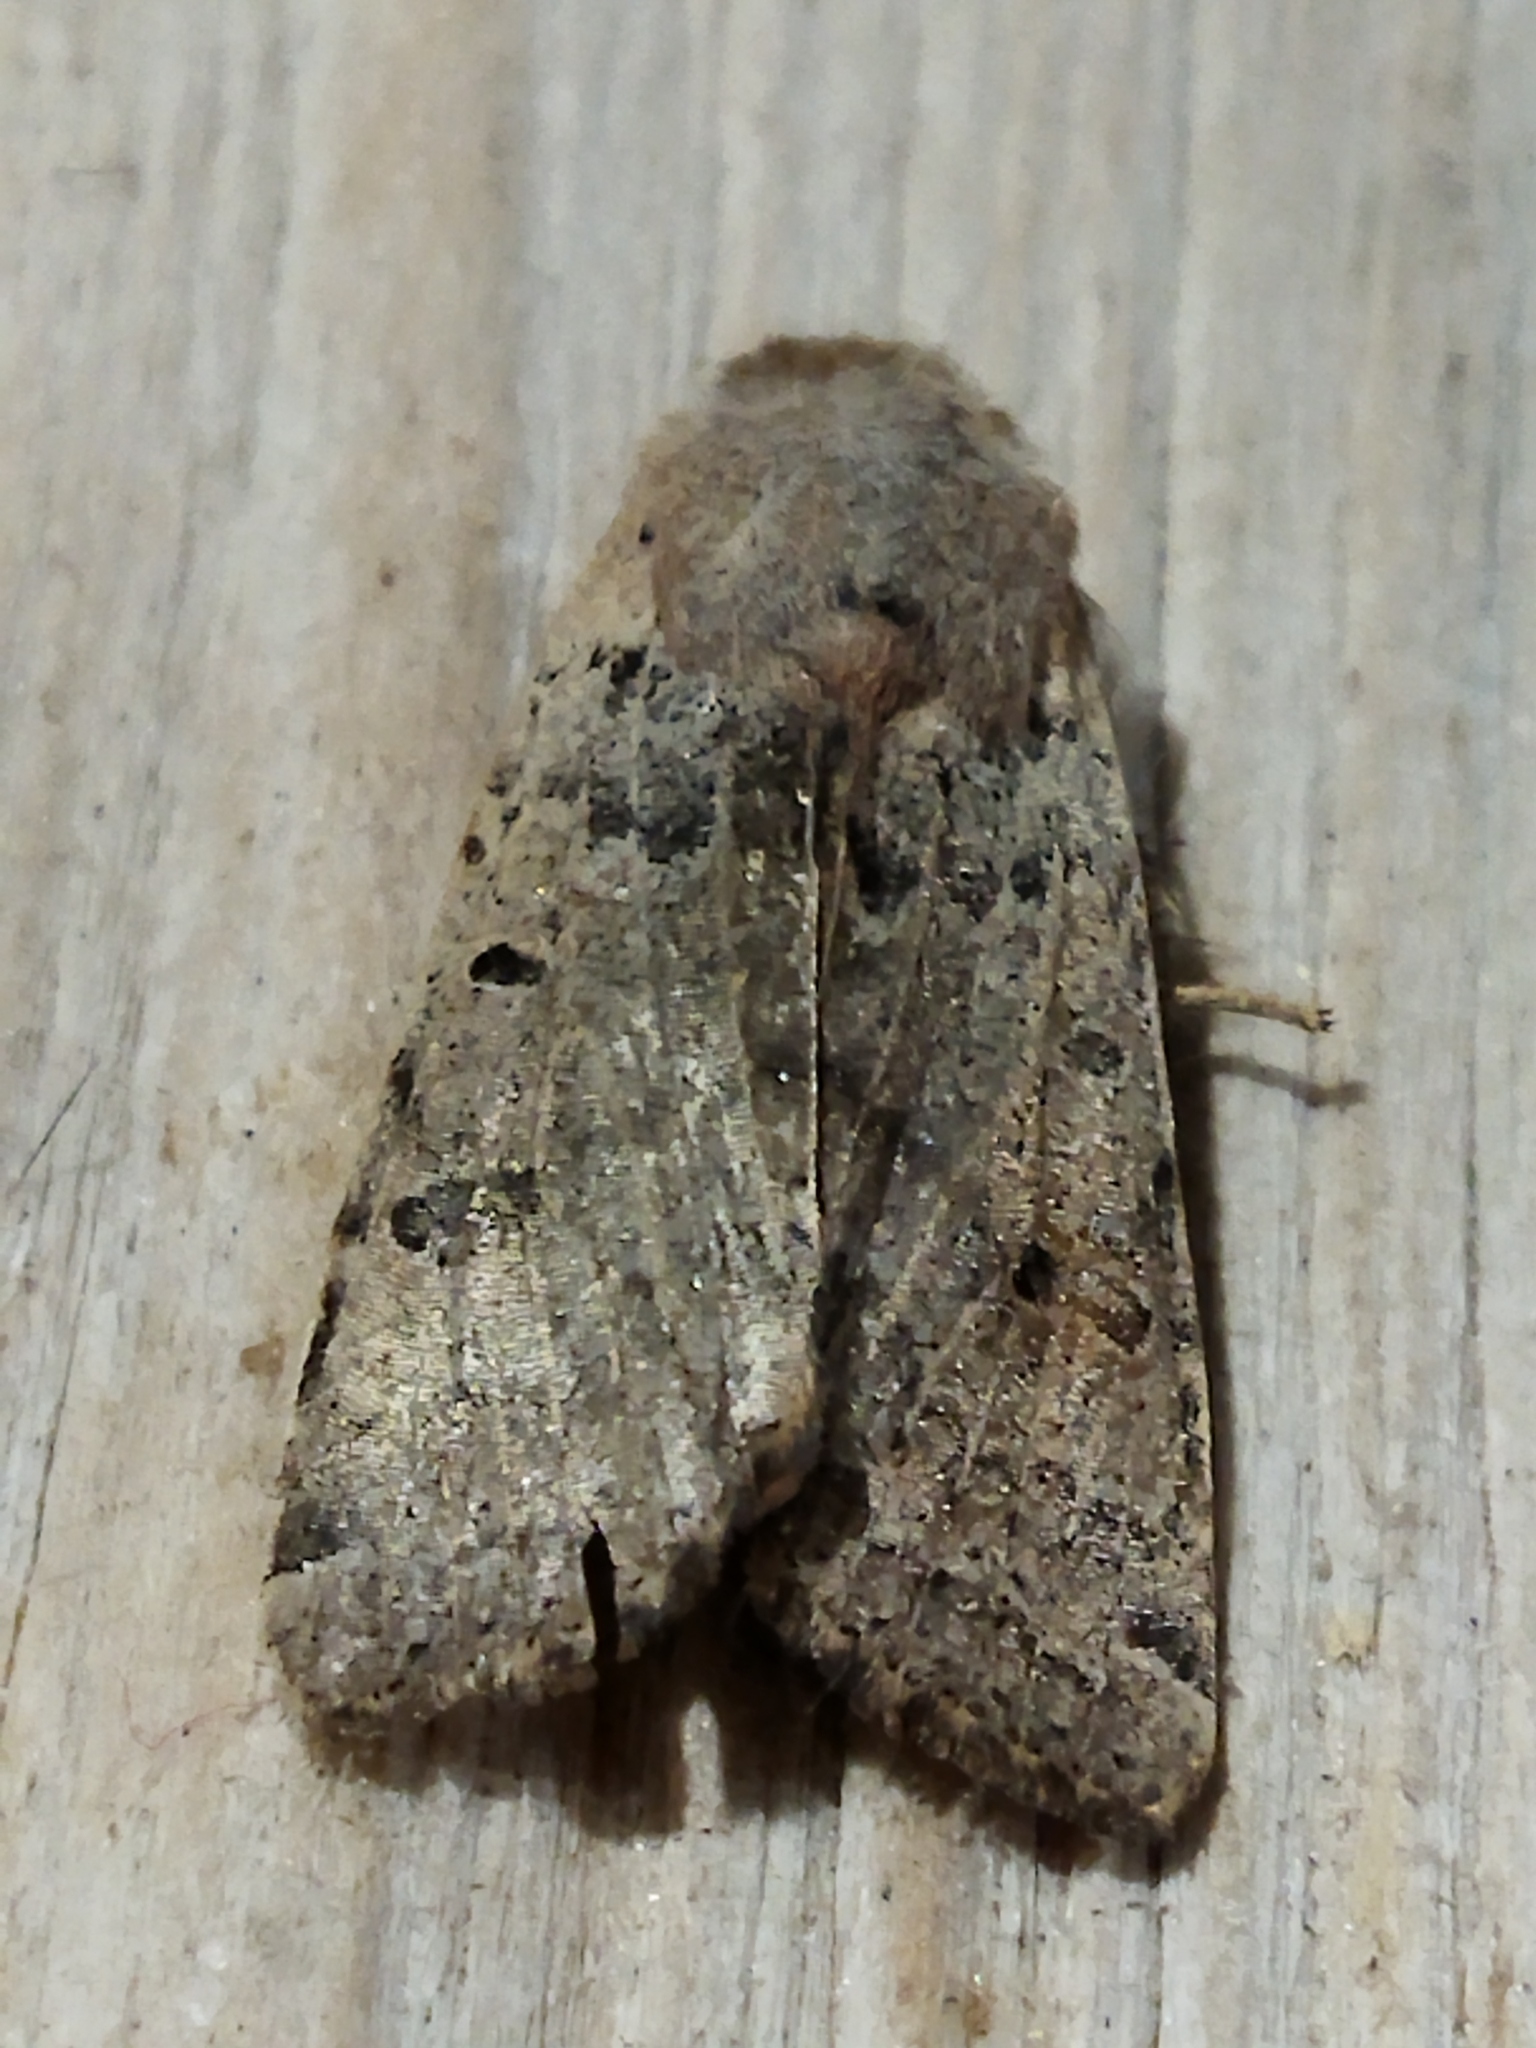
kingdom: Animalia
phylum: Arthropoda
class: Insecta
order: Lepidoptera
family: Noctuidae
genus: Agrochola
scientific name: Agrochola lychnidis
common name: Beaded chestnut
